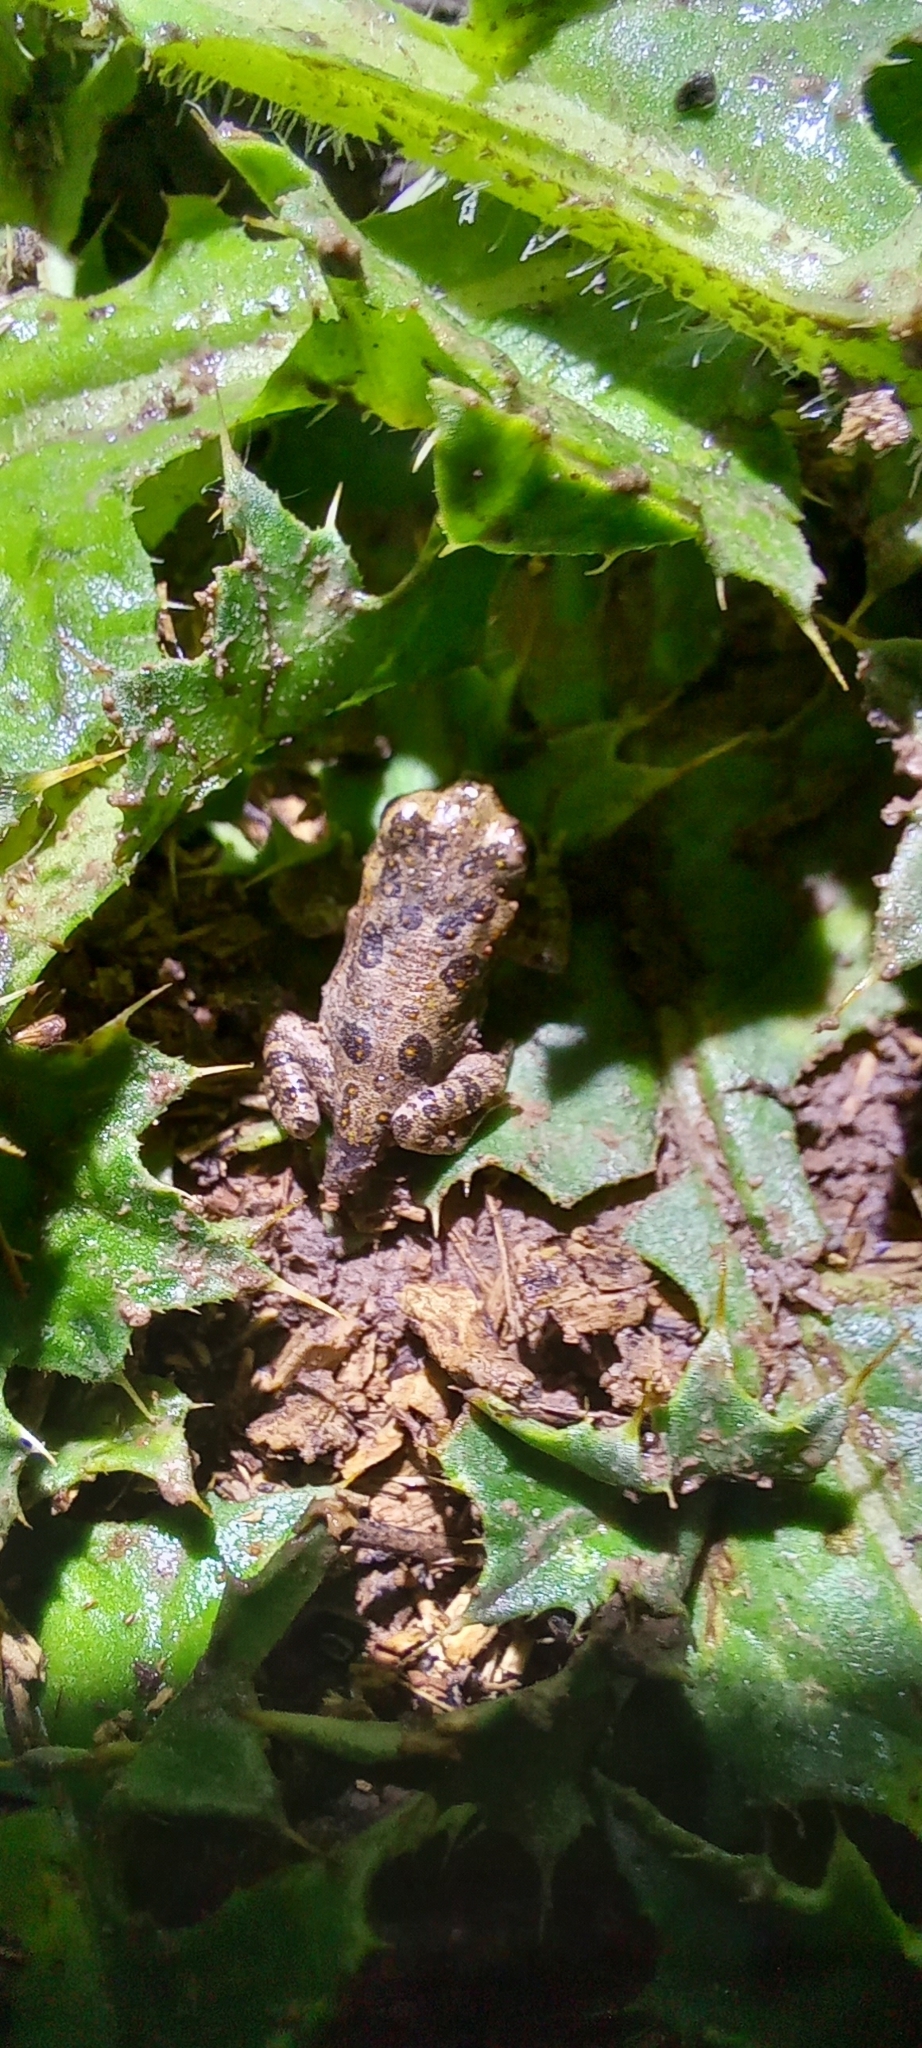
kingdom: Animalia
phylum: Chordata
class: Amphibia
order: Anura
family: Bufonidae
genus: Rhinella
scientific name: Rhinella arenarum
